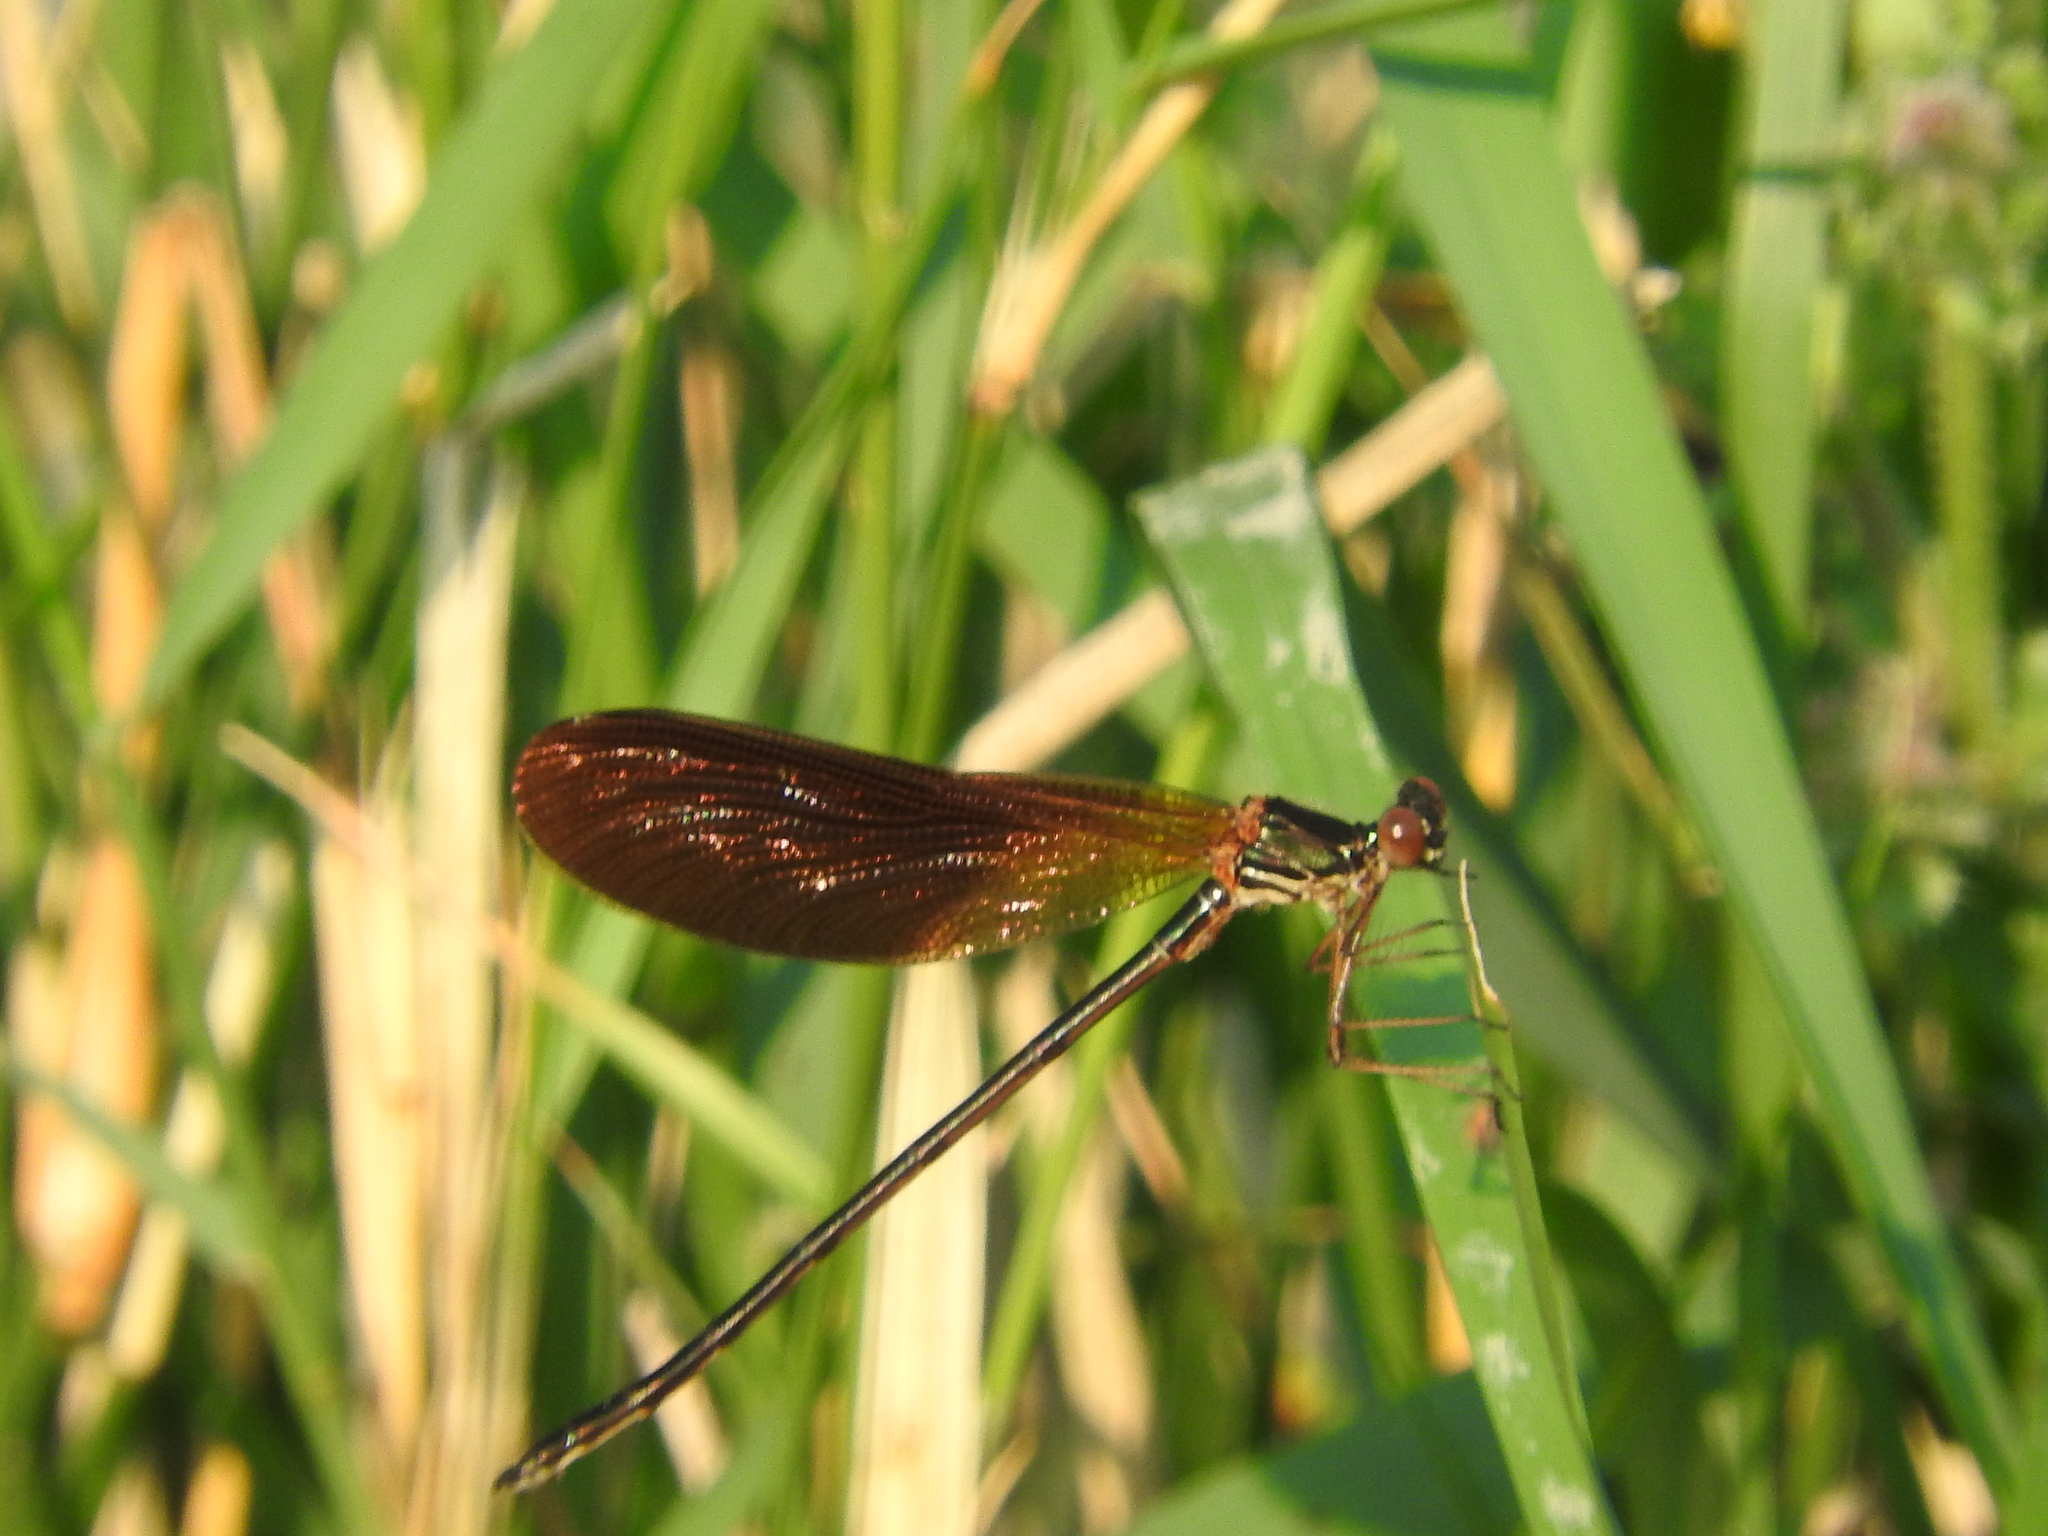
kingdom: Animalia
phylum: Arthropoda
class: Insecta
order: Odonata
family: Calopterygidae
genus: Calopteryx
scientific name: Calopteryx haemorrhoidalis
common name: Copper demoiselle
